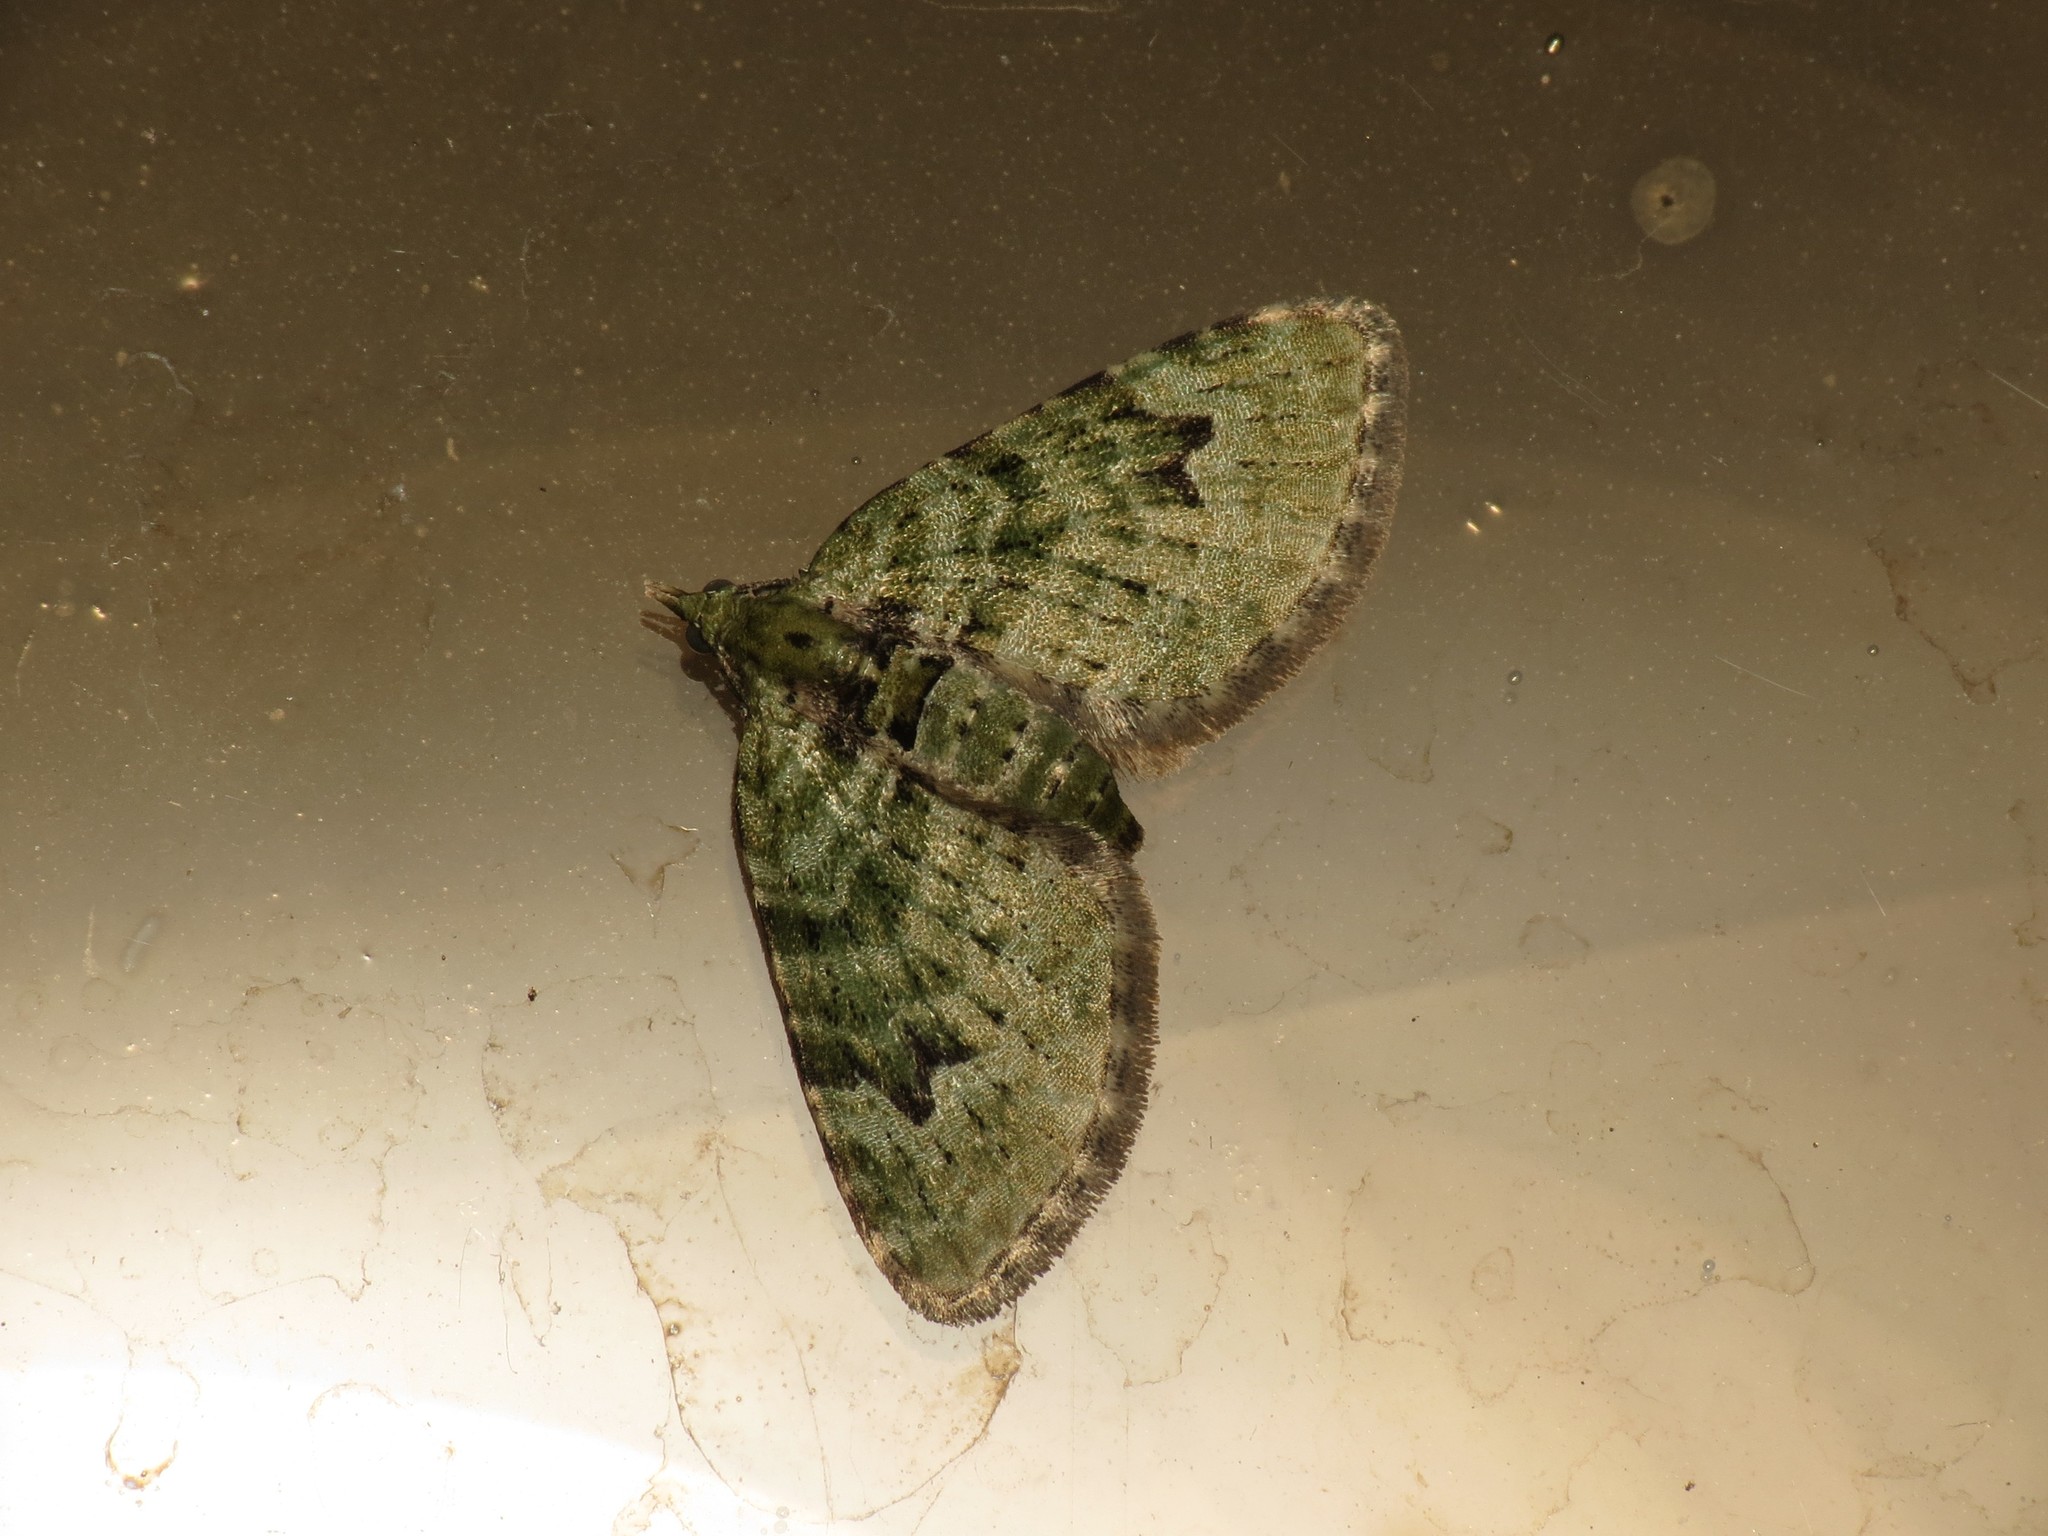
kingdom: Animalia
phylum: Arthropoda
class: Insecta
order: Lepidoptera
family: Geometridae
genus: Chloroclystis
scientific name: Chloroclystis v-ata
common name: V-pug
